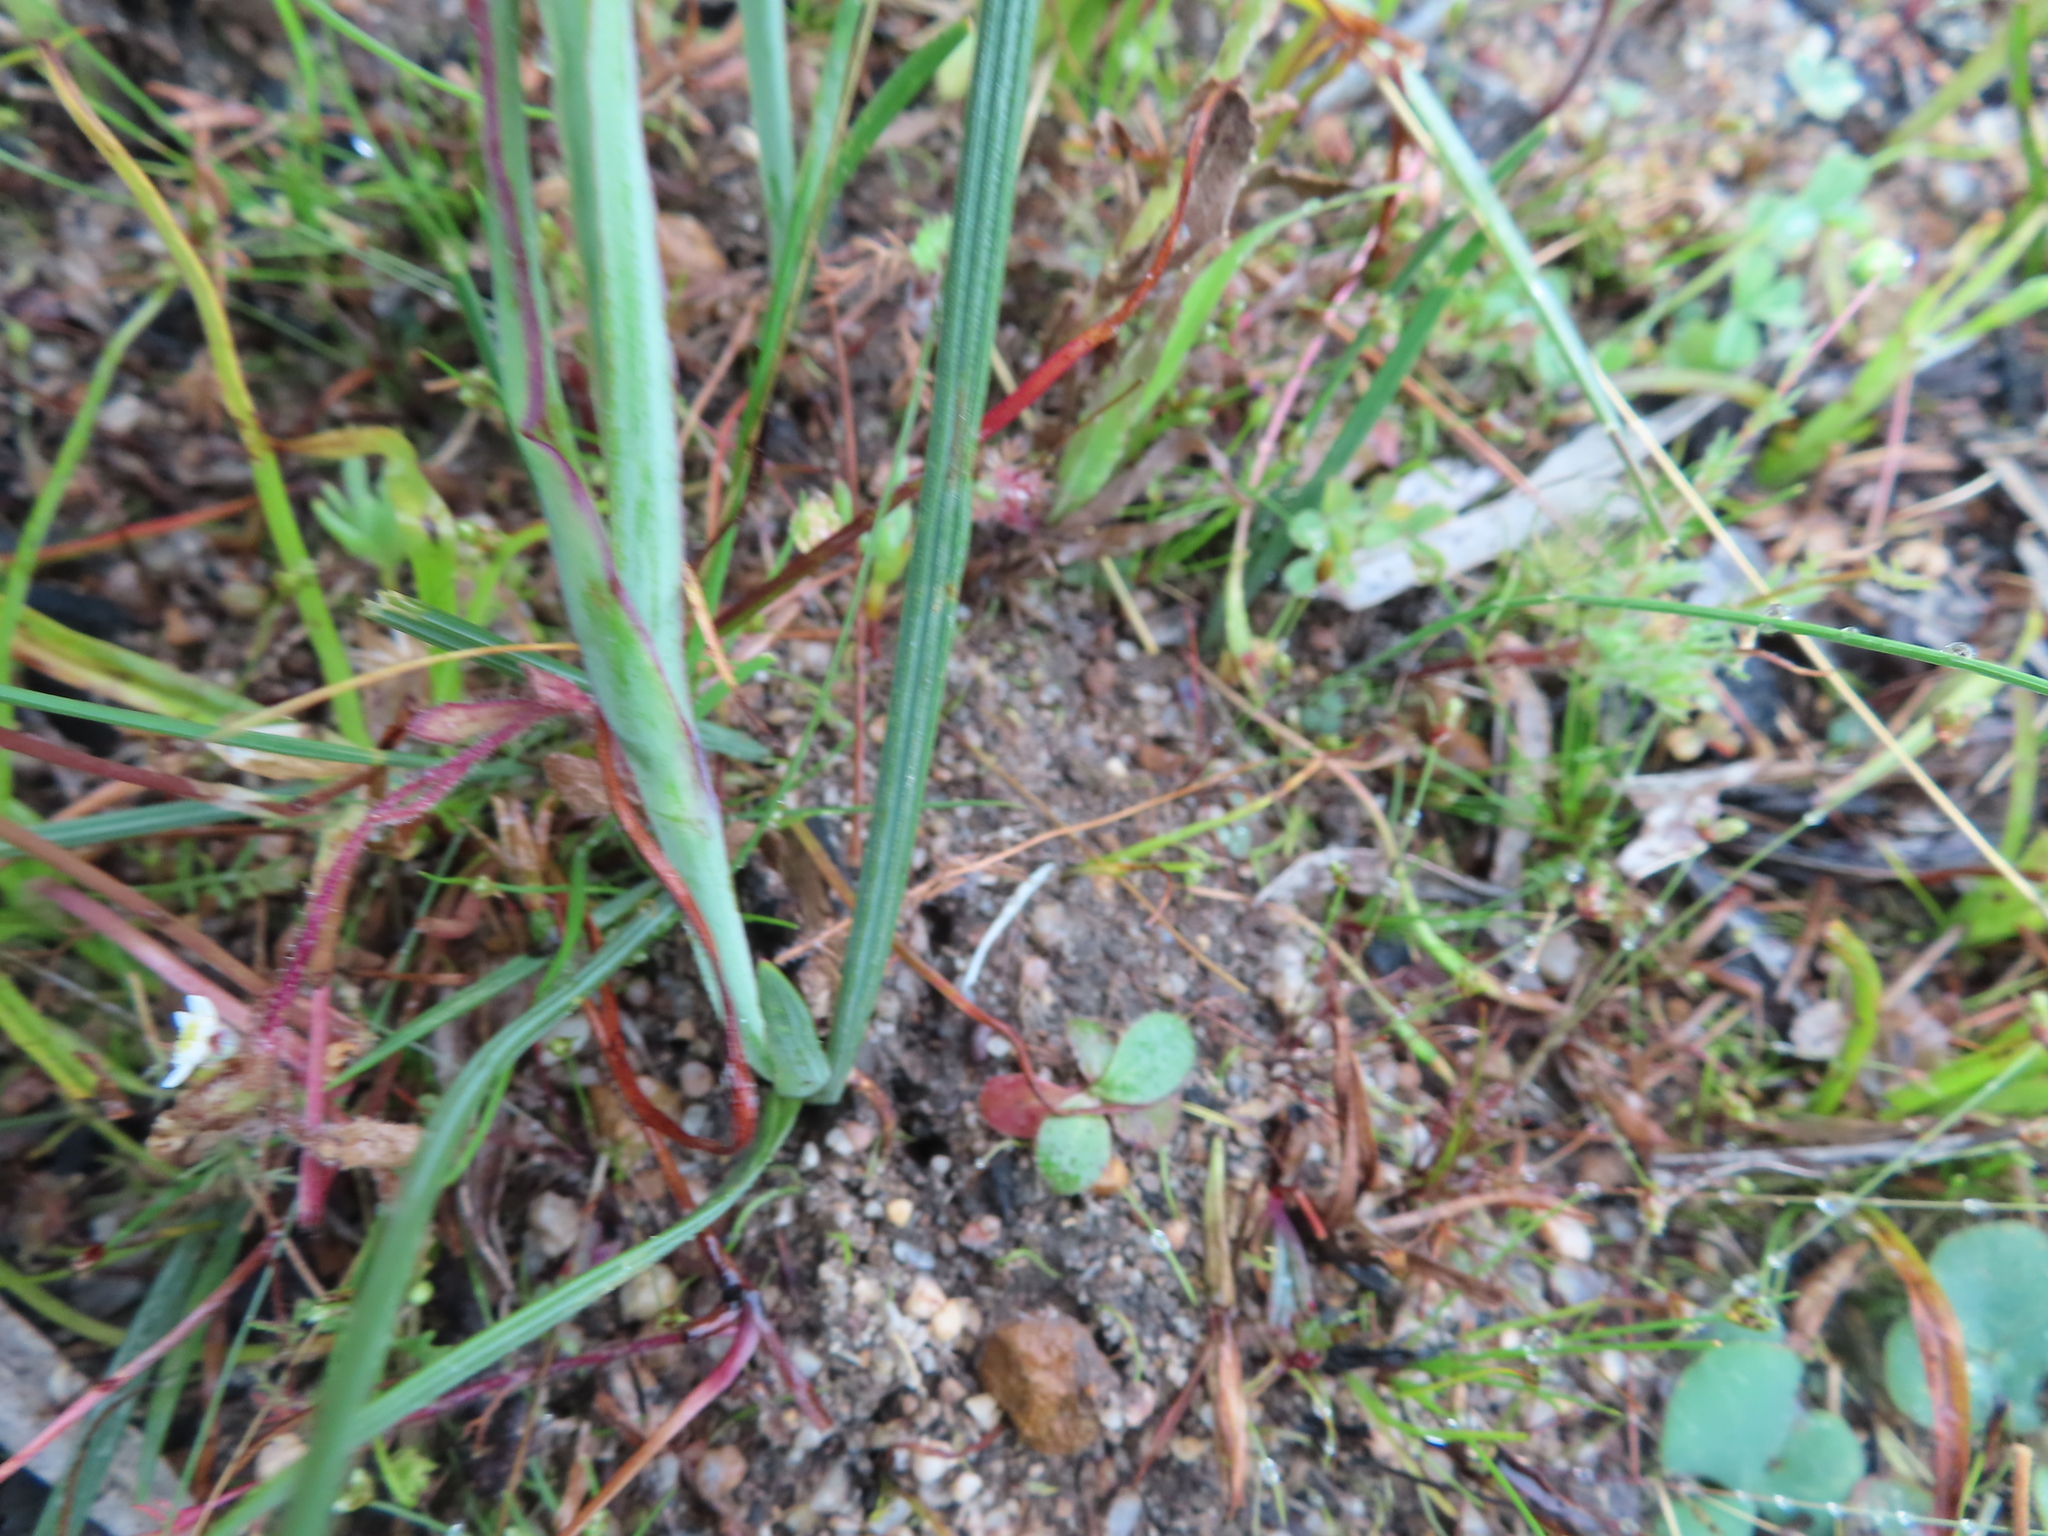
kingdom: Plantae
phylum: Tracheophyta
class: Liliopsida
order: Asparagales
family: Iridaceae
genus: Gladiolus
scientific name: Gladiolus alatus
